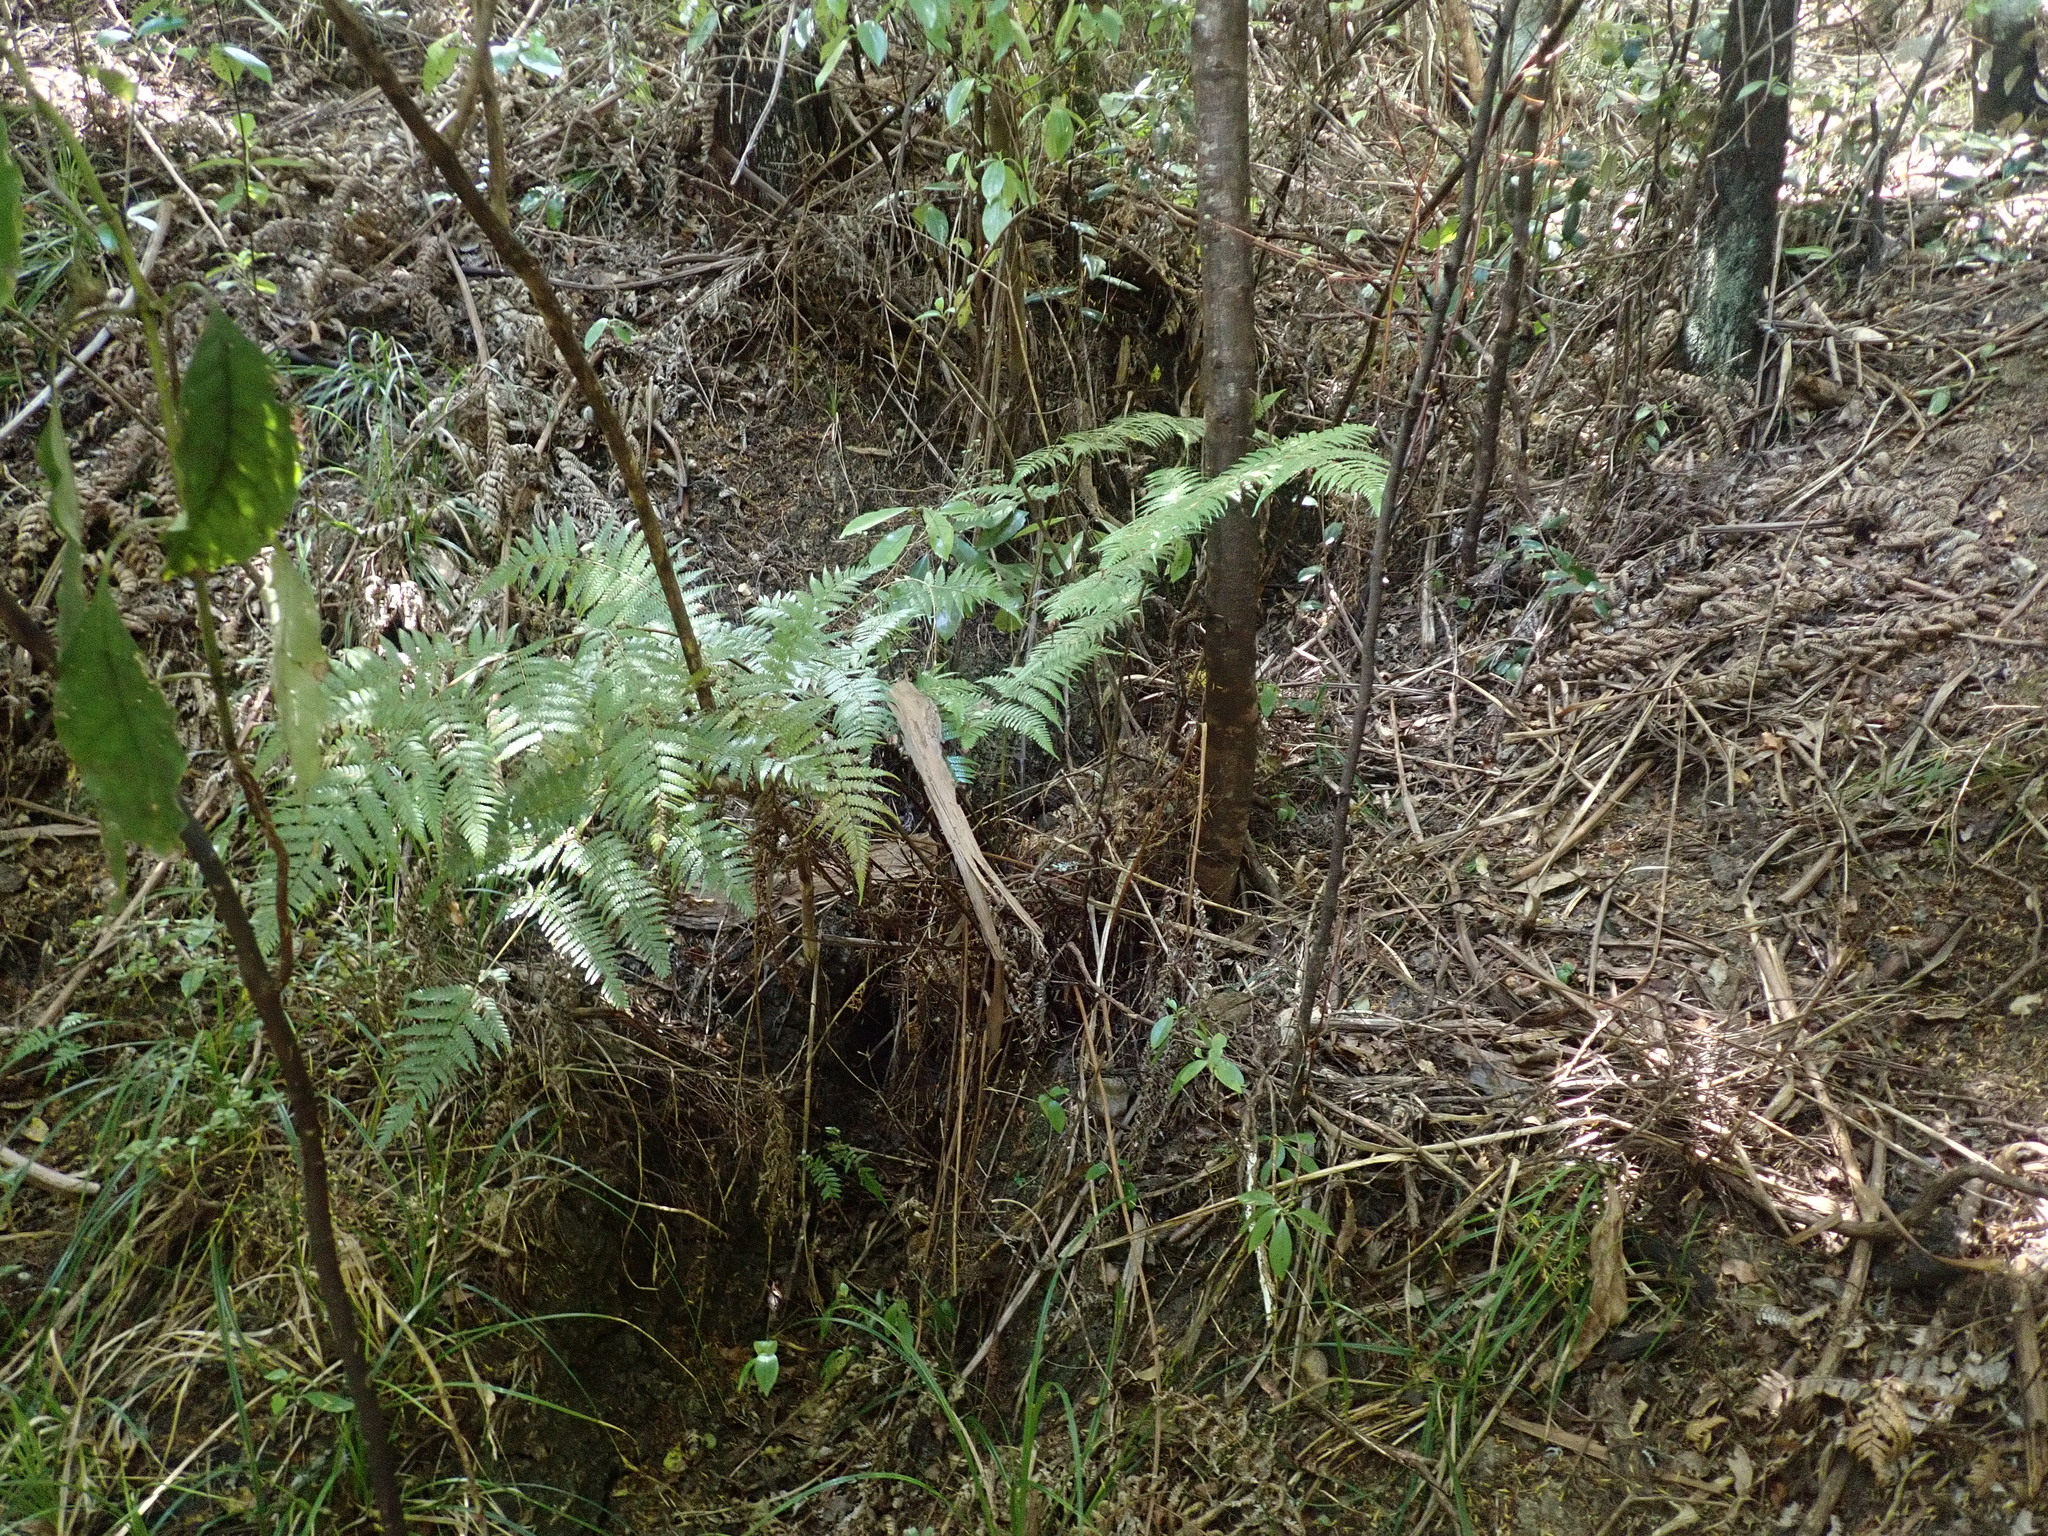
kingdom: Plantae
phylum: Tracheophyta
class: Polypodiopsida
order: Cyatheales
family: Cyatheaceae
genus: Alsophila
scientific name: Alsophila dealbata
